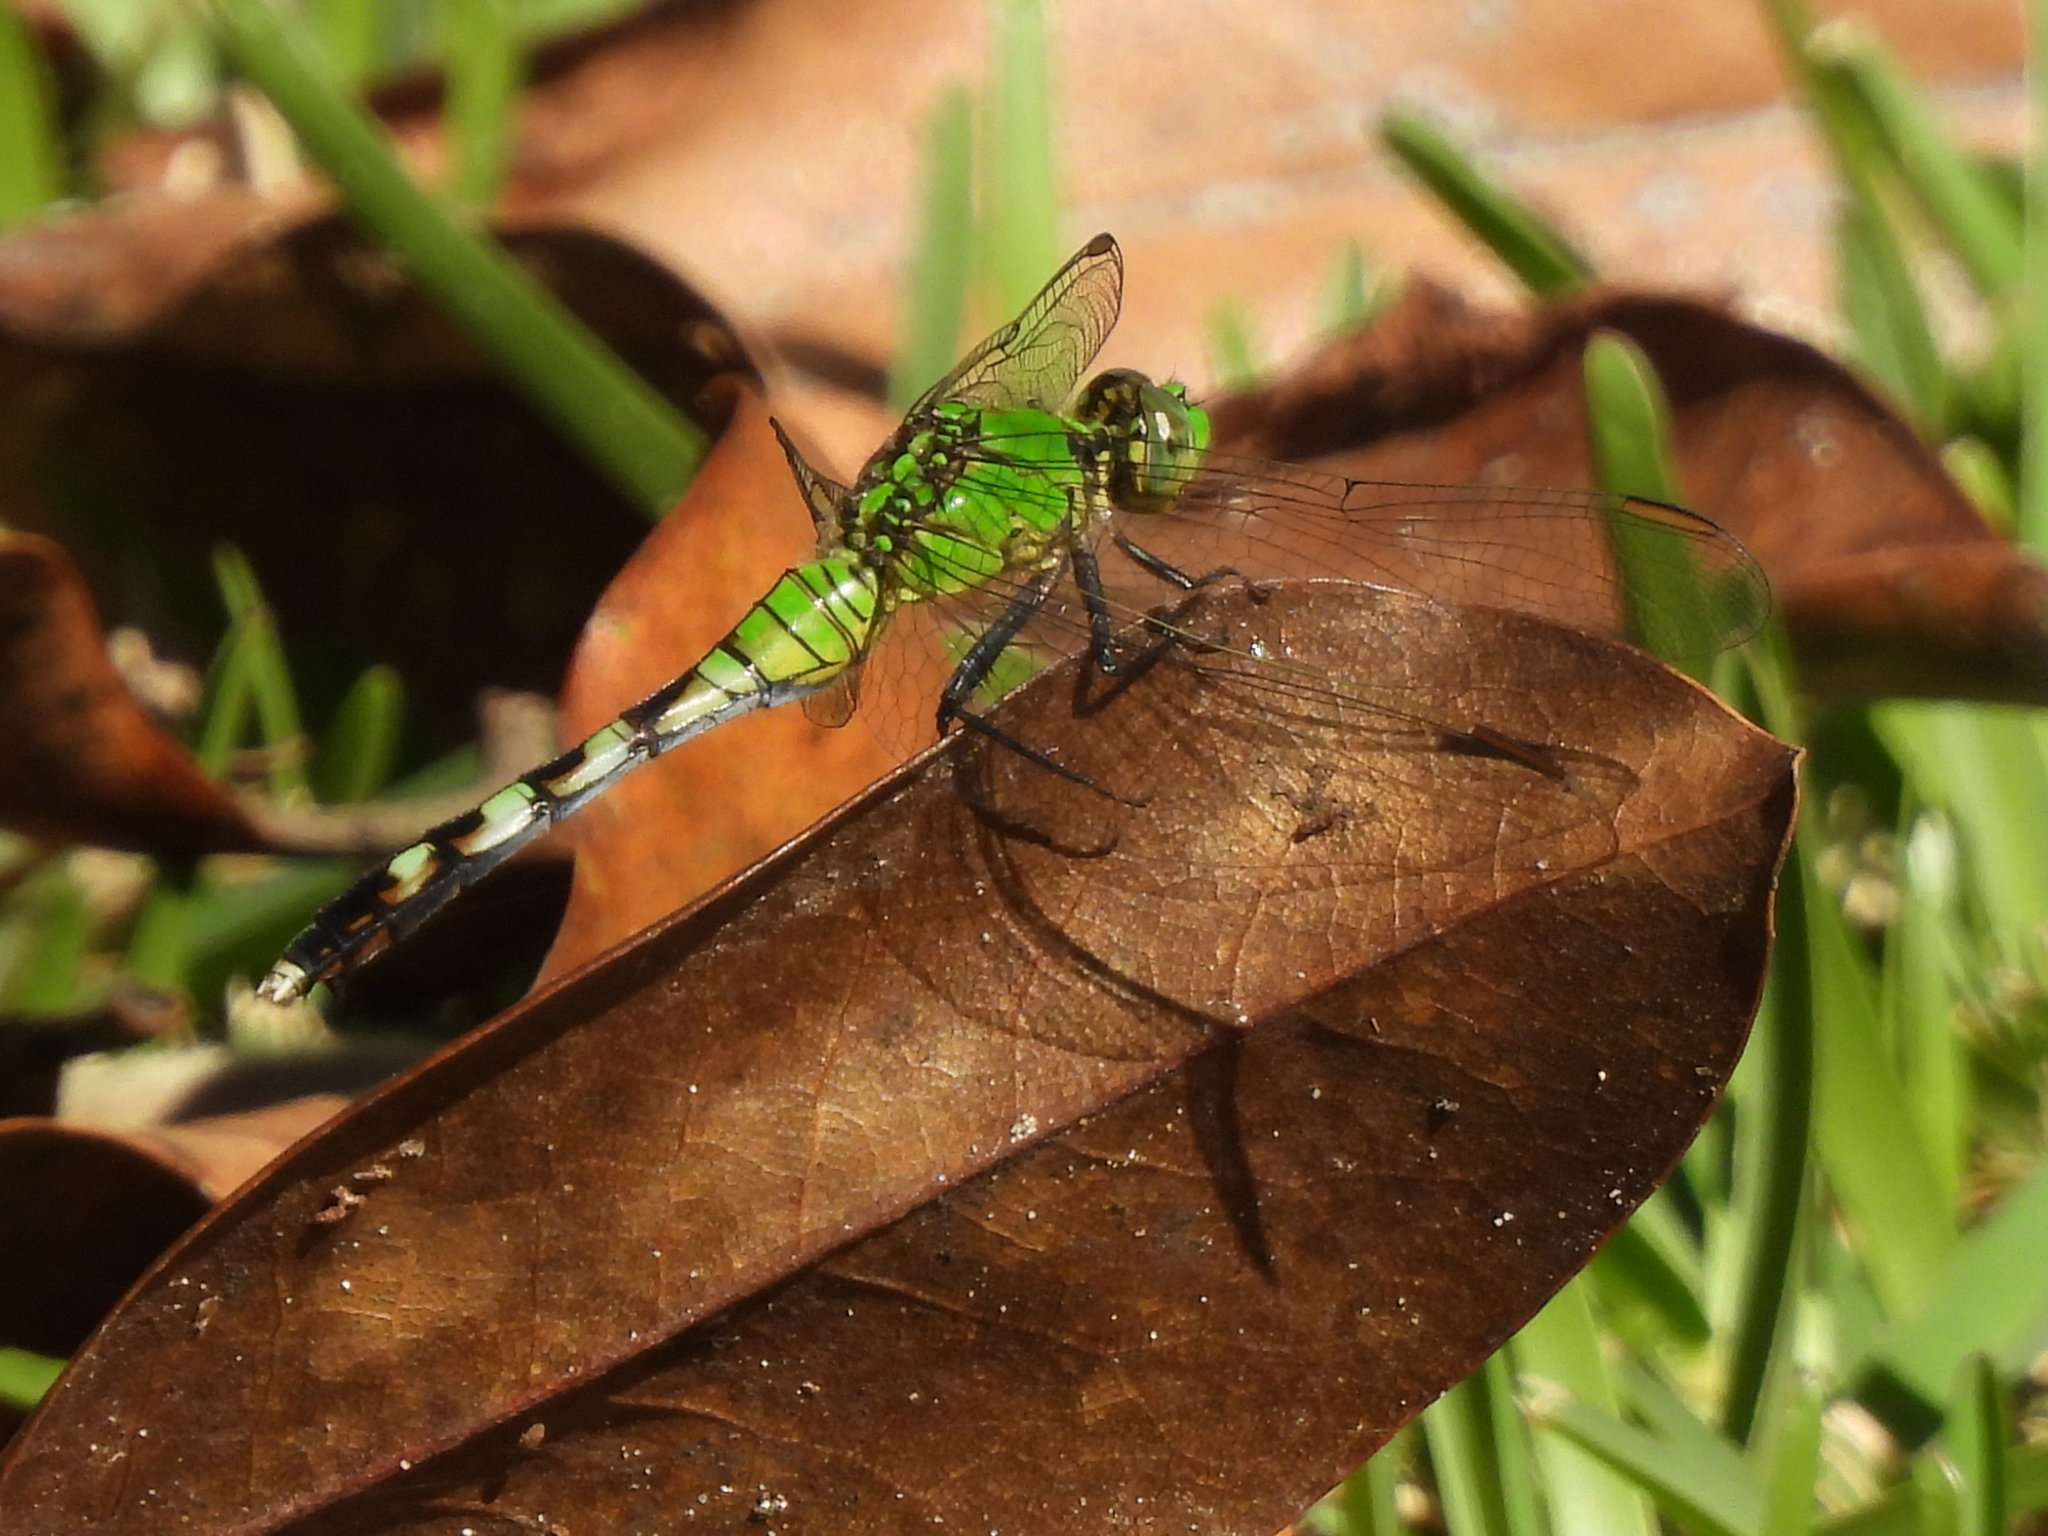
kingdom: Animalia
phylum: Arthropoda
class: Insecta
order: Odonata
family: Libellulidae
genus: Erythemis
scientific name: Erythemis simplicicollis
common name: Eastern pondhawk
